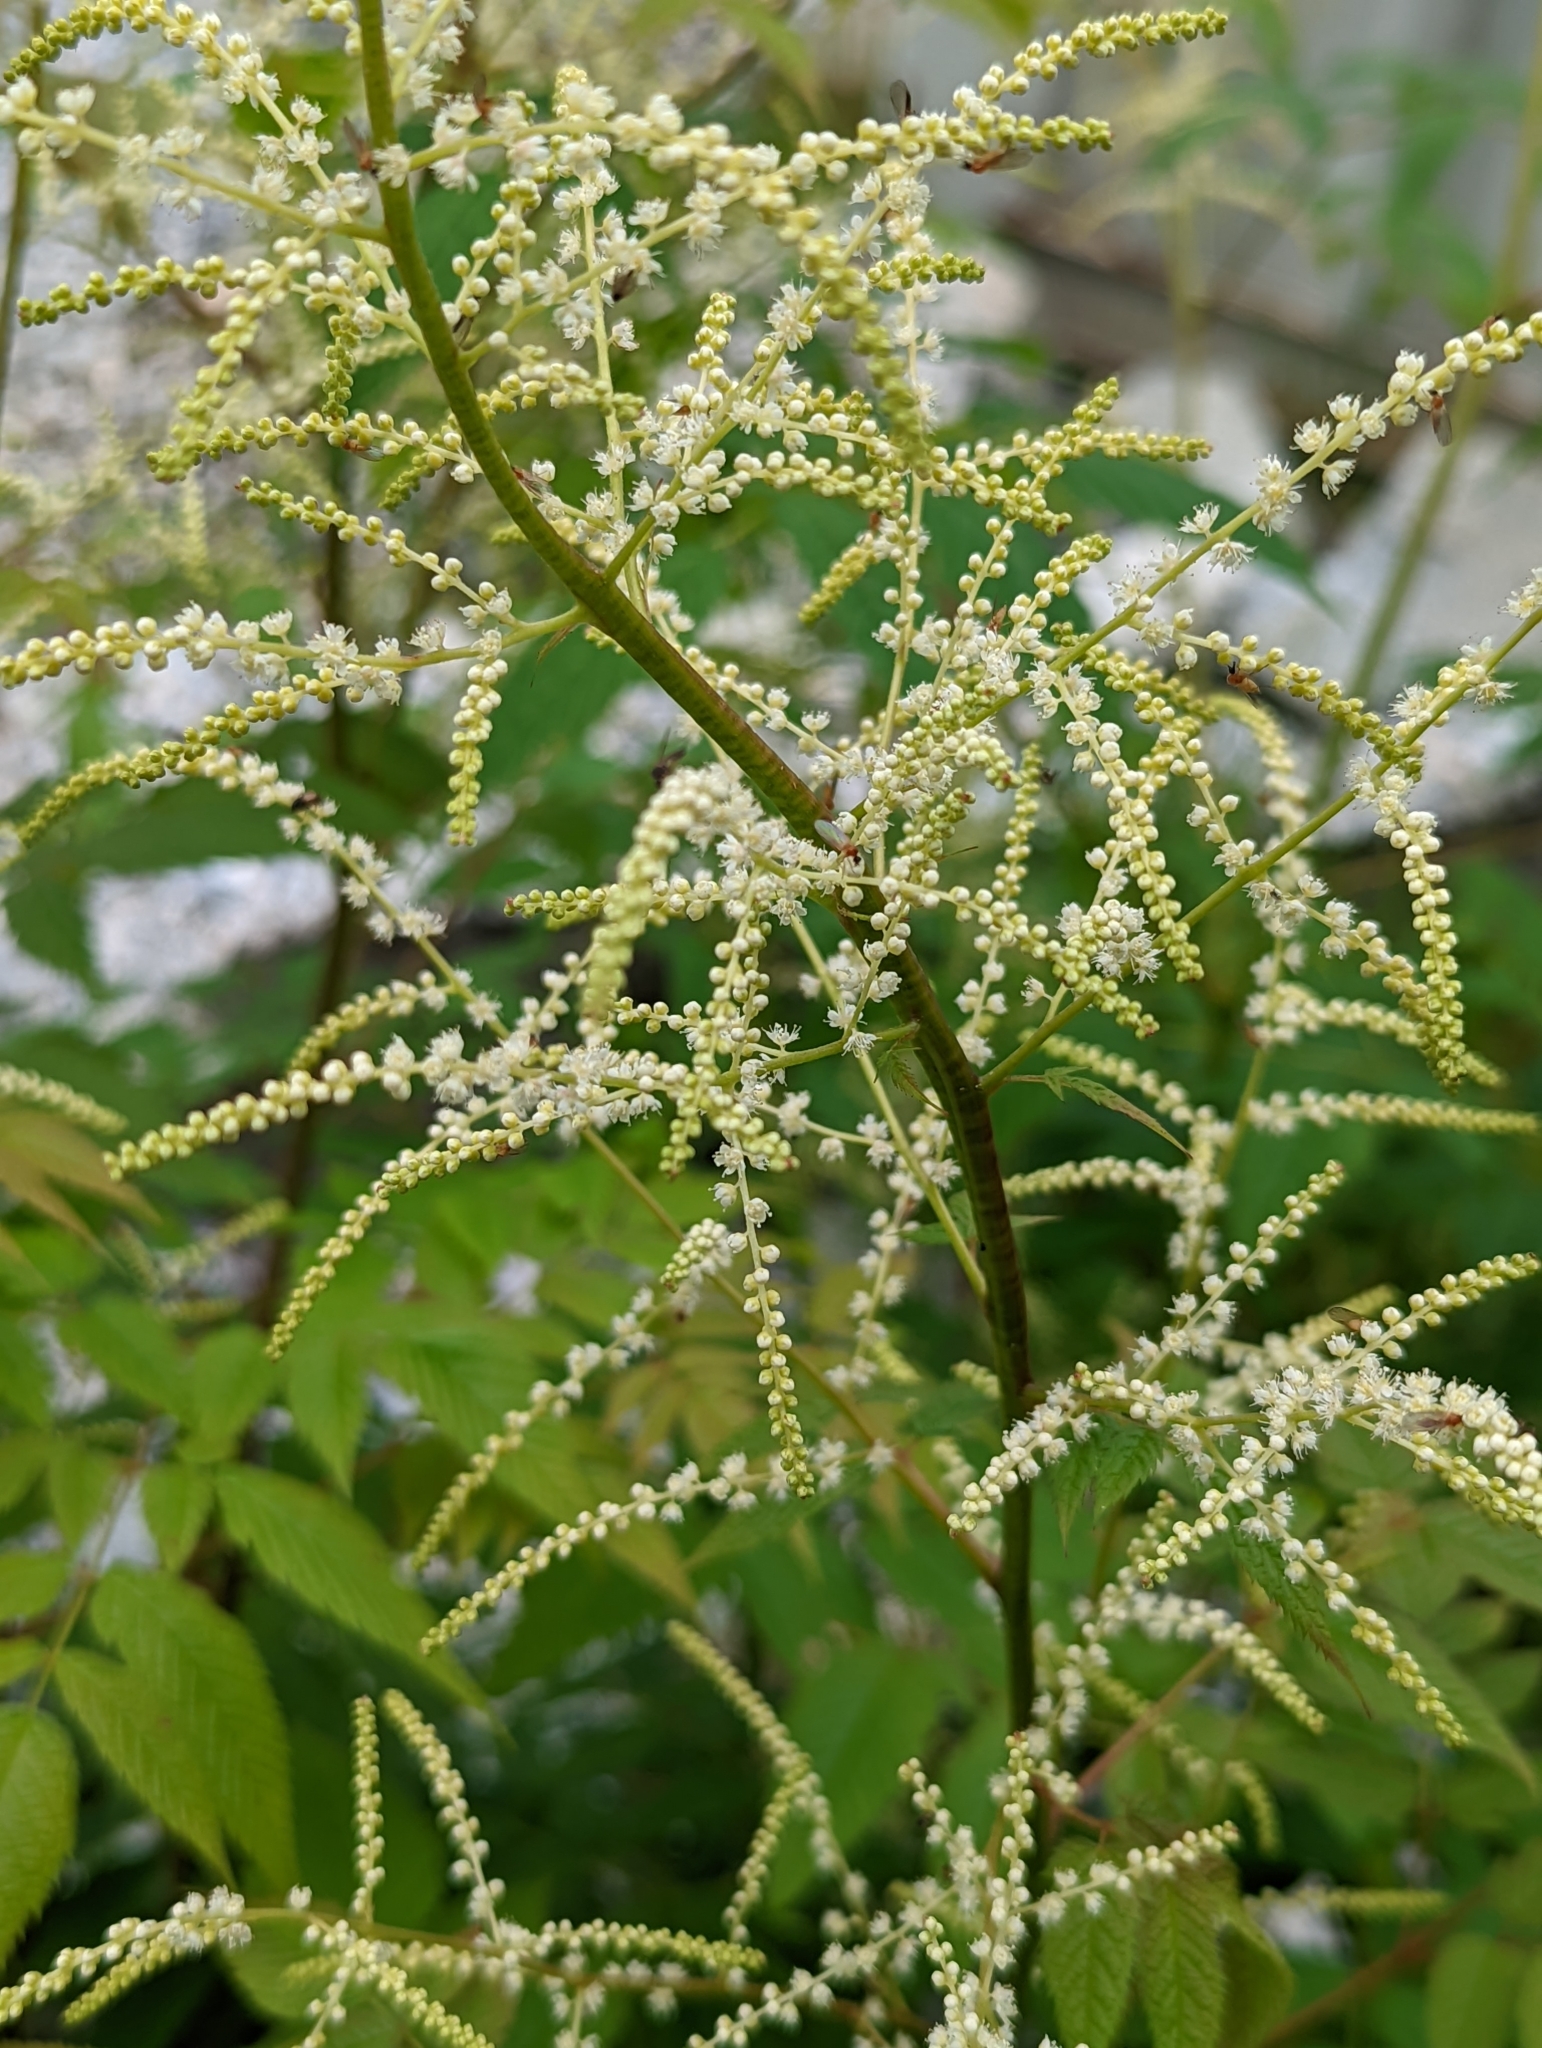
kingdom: Plantae
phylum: Tracheophyta
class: Magnoliopsida
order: Rosales
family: Rosaceae
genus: Aruncus
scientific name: Aruncus dioicus
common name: Buck's-beard
